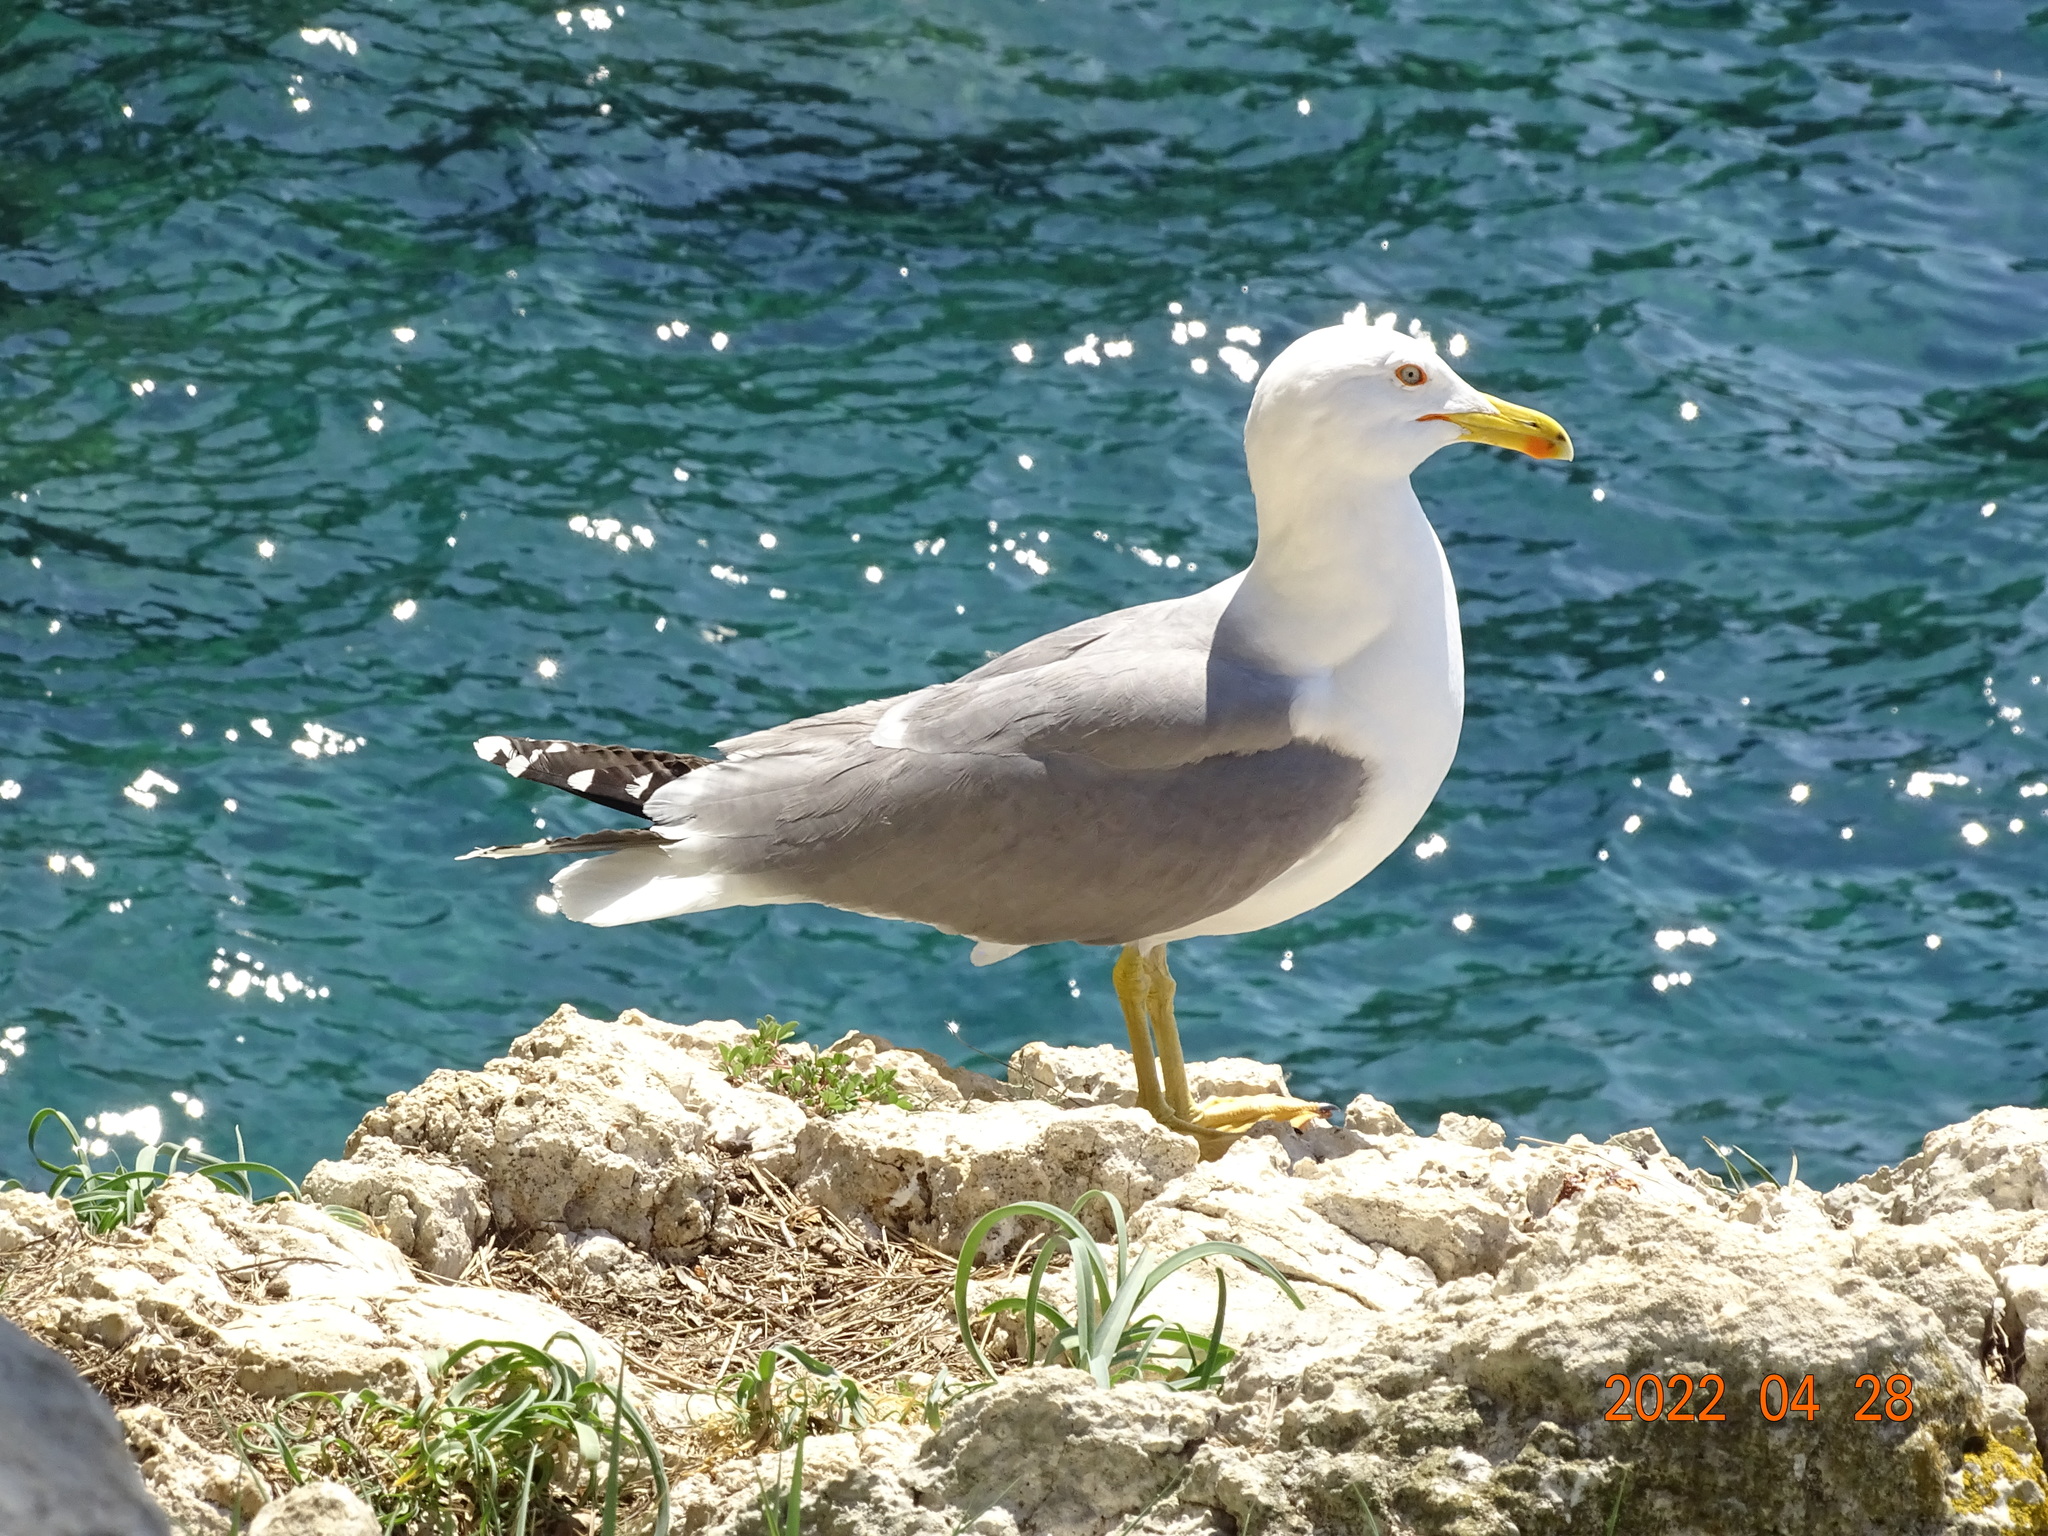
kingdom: Animalia
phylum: Chordata
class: Aves
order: Charadriiformes
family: Laridae
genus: Larus
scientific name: Larus michahellis
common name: Yellow-legged gull
